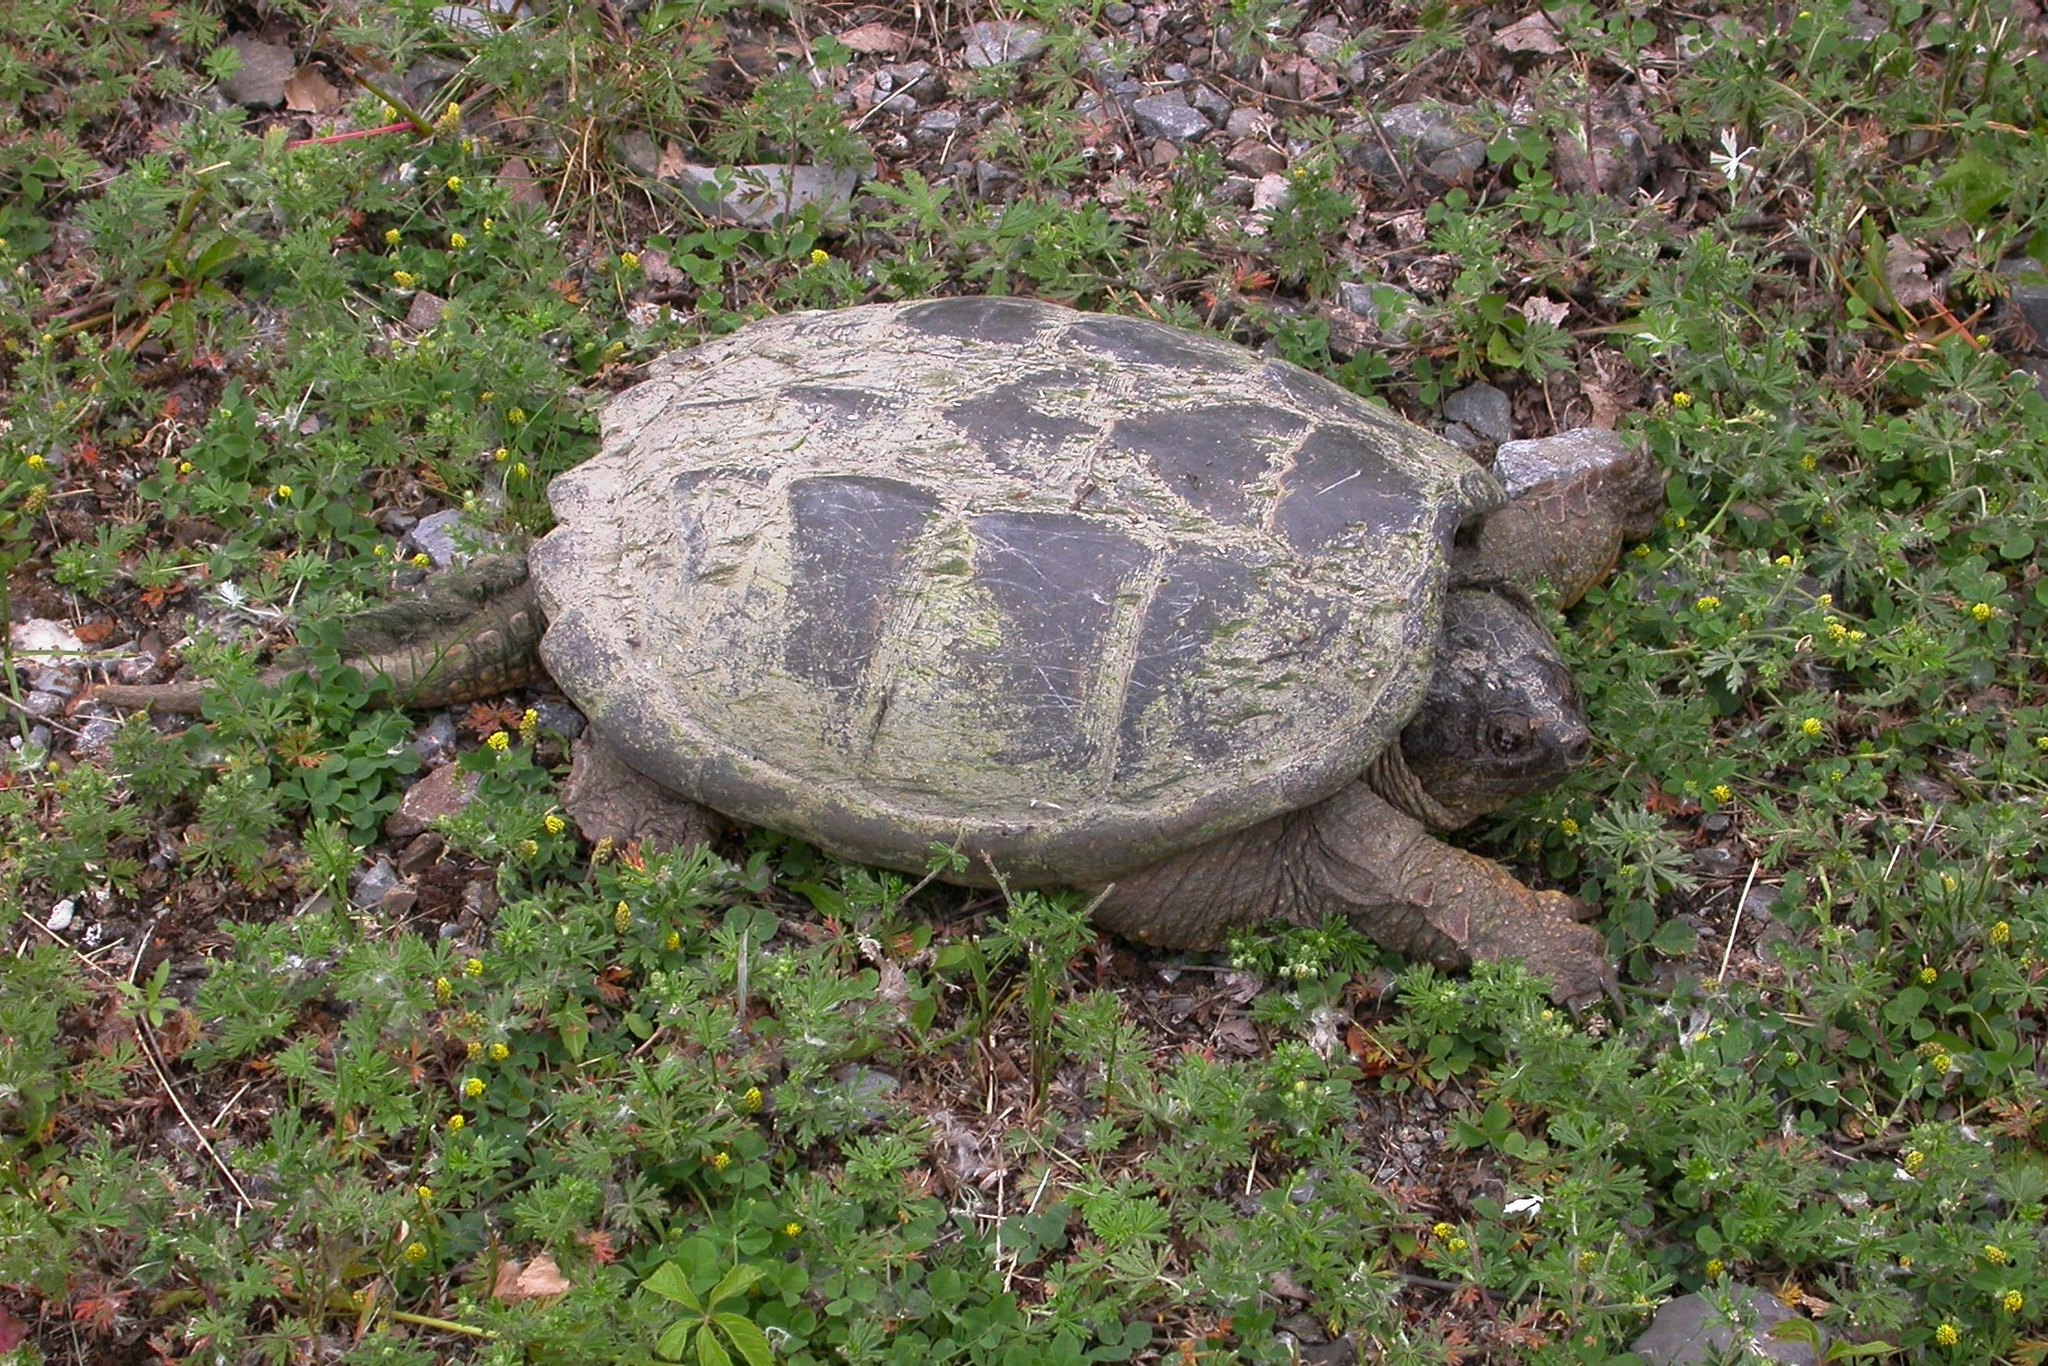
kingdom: Animalia
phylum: Chordata
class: Testudines
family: Chelydridae
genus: Chelydra
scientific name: Chelydra serpentina
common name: Common snapping turtle
